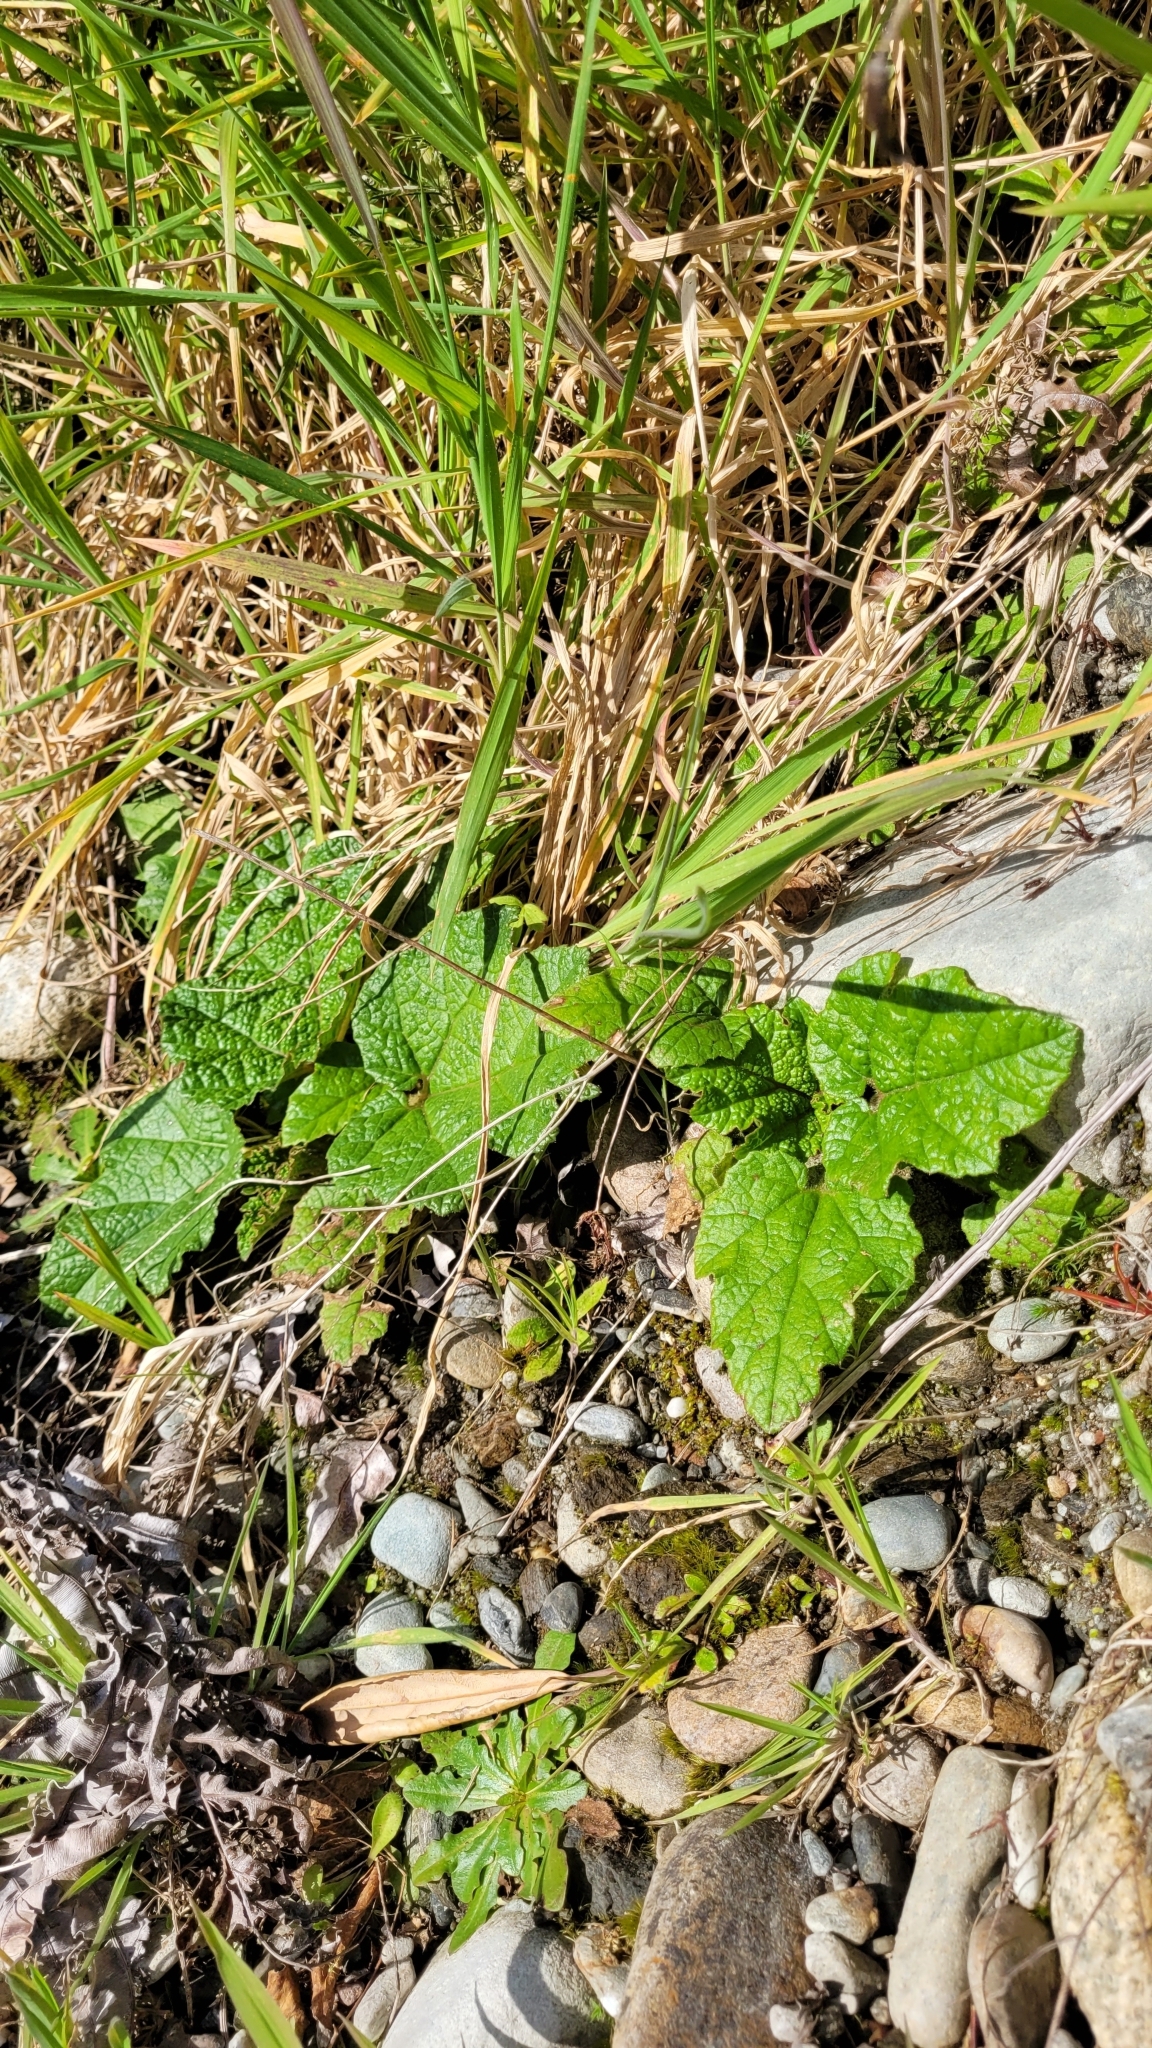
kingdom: Plantae
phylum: Tracheophyta
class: Magnoliopsida
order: Gunnerales
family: Gunneraceae
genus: Gunnera
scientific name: Gunnera tinctoria
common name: Giant-rhubarb
